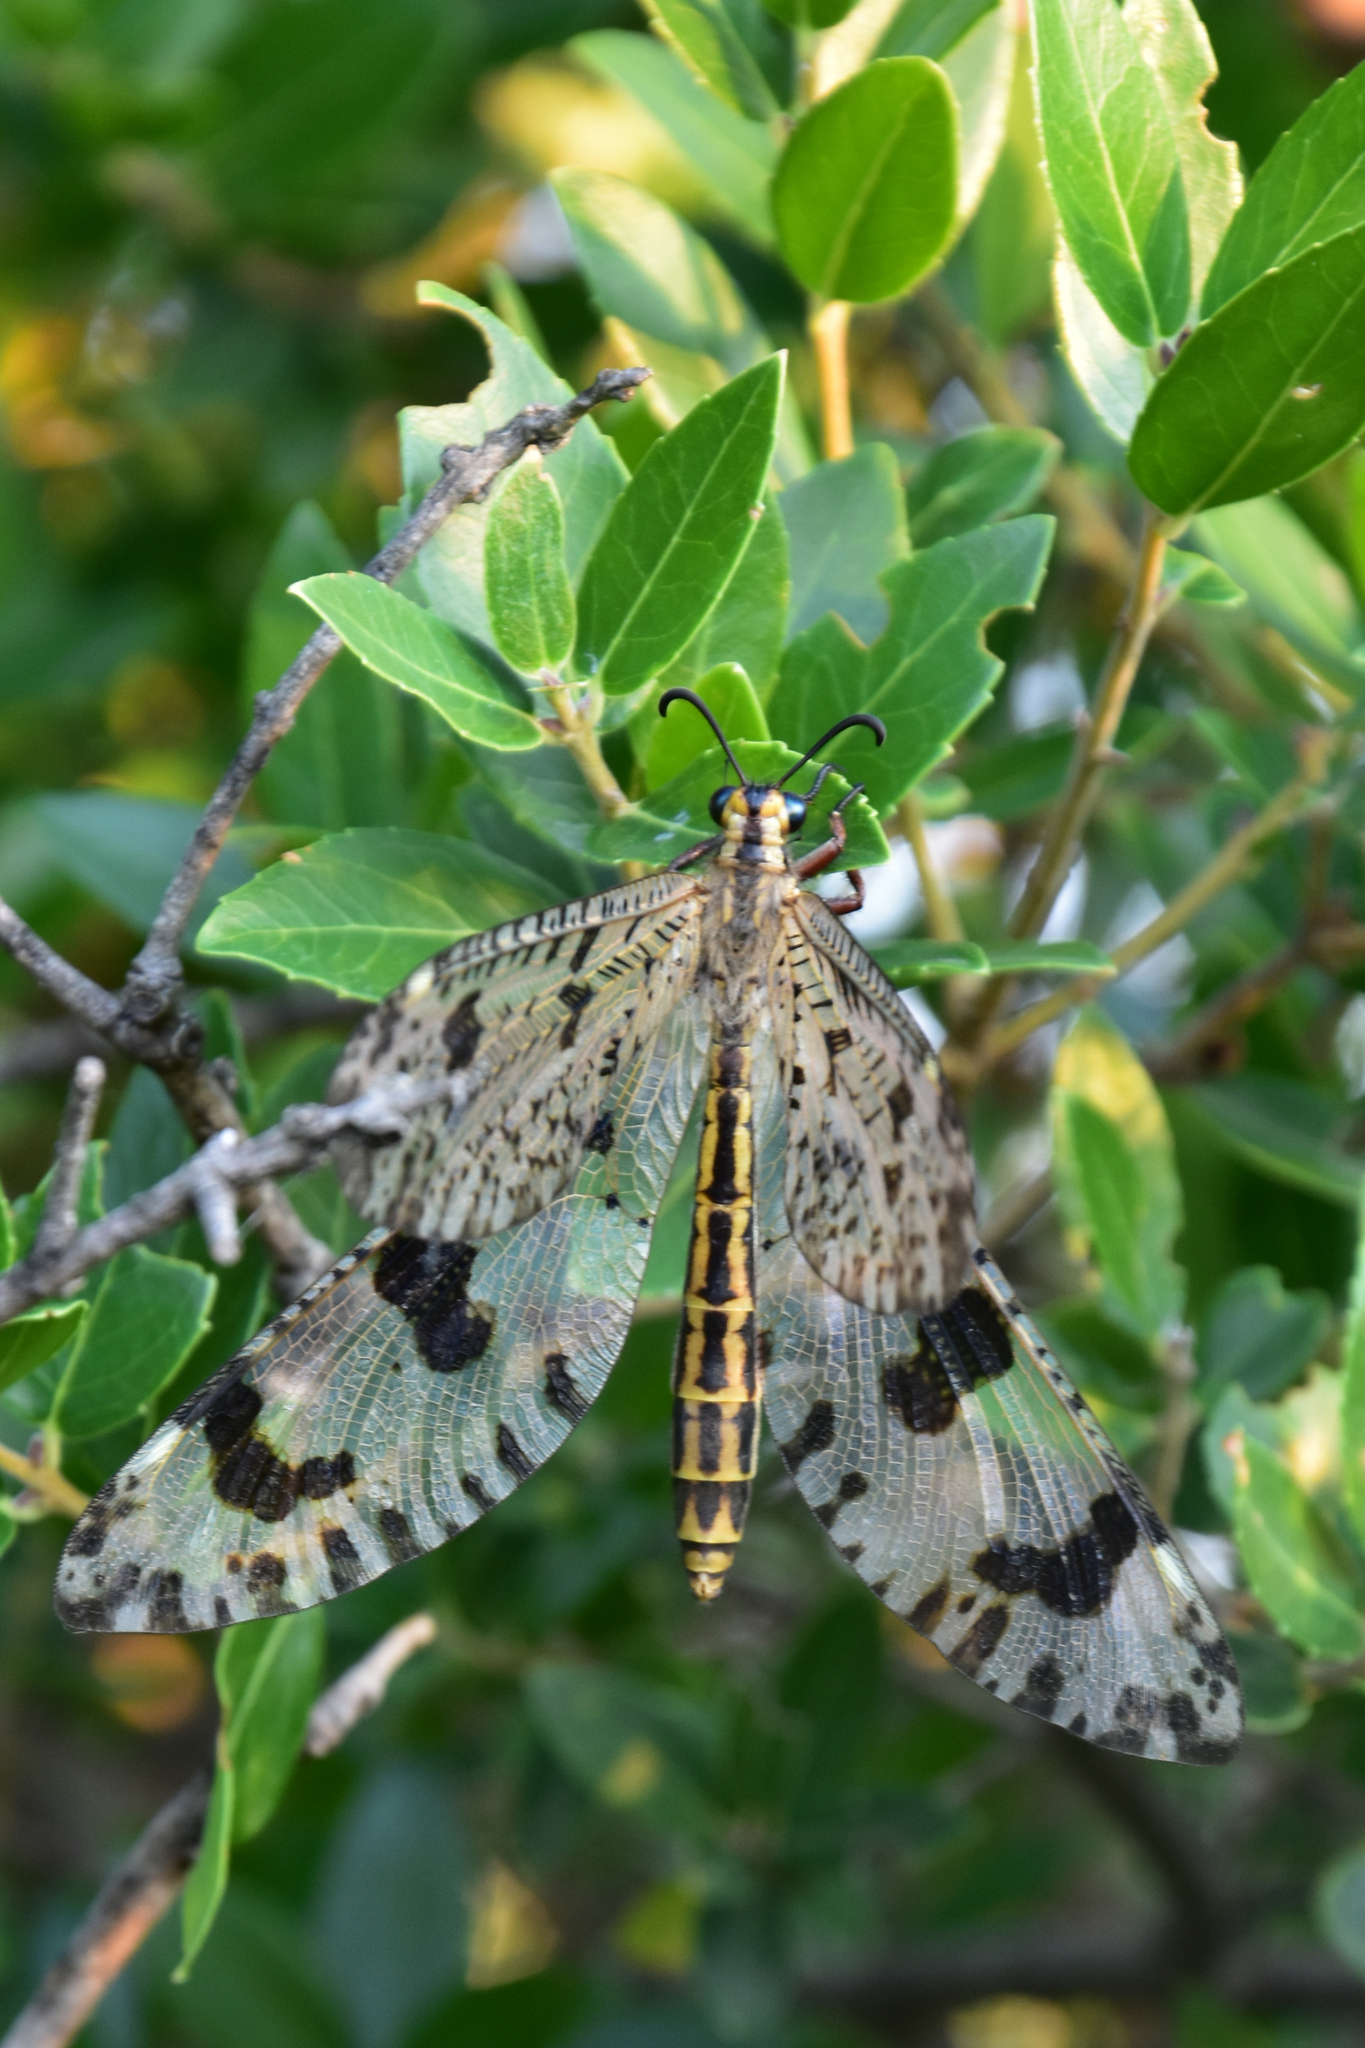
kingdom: Animalia
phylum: Arthropoda
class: Insecta
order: Neuroptera
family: Myrmeleontidae
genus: Palpares
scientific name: Palpares libelluloides
